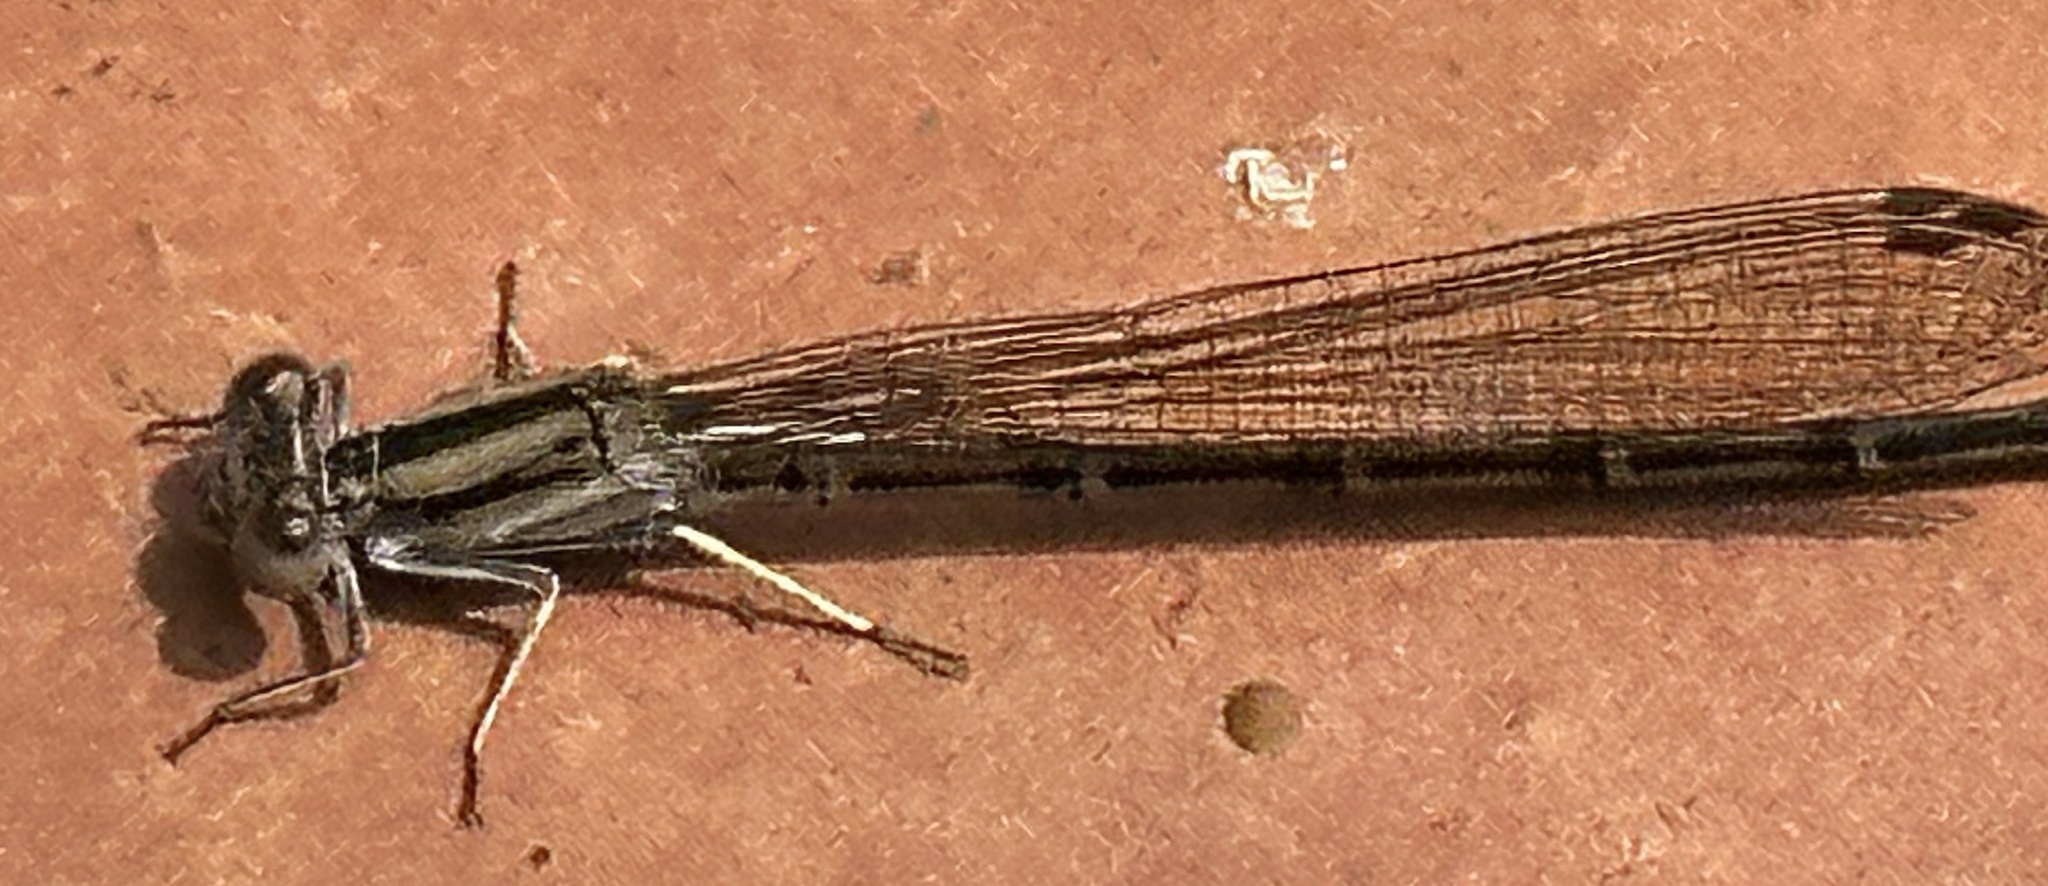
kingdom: Animalia
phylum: Arthropoda
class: Insecta
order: Odonata
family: Coenagrionidae
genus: Argia
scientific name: Argia fumipennis
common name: Variable dancer
